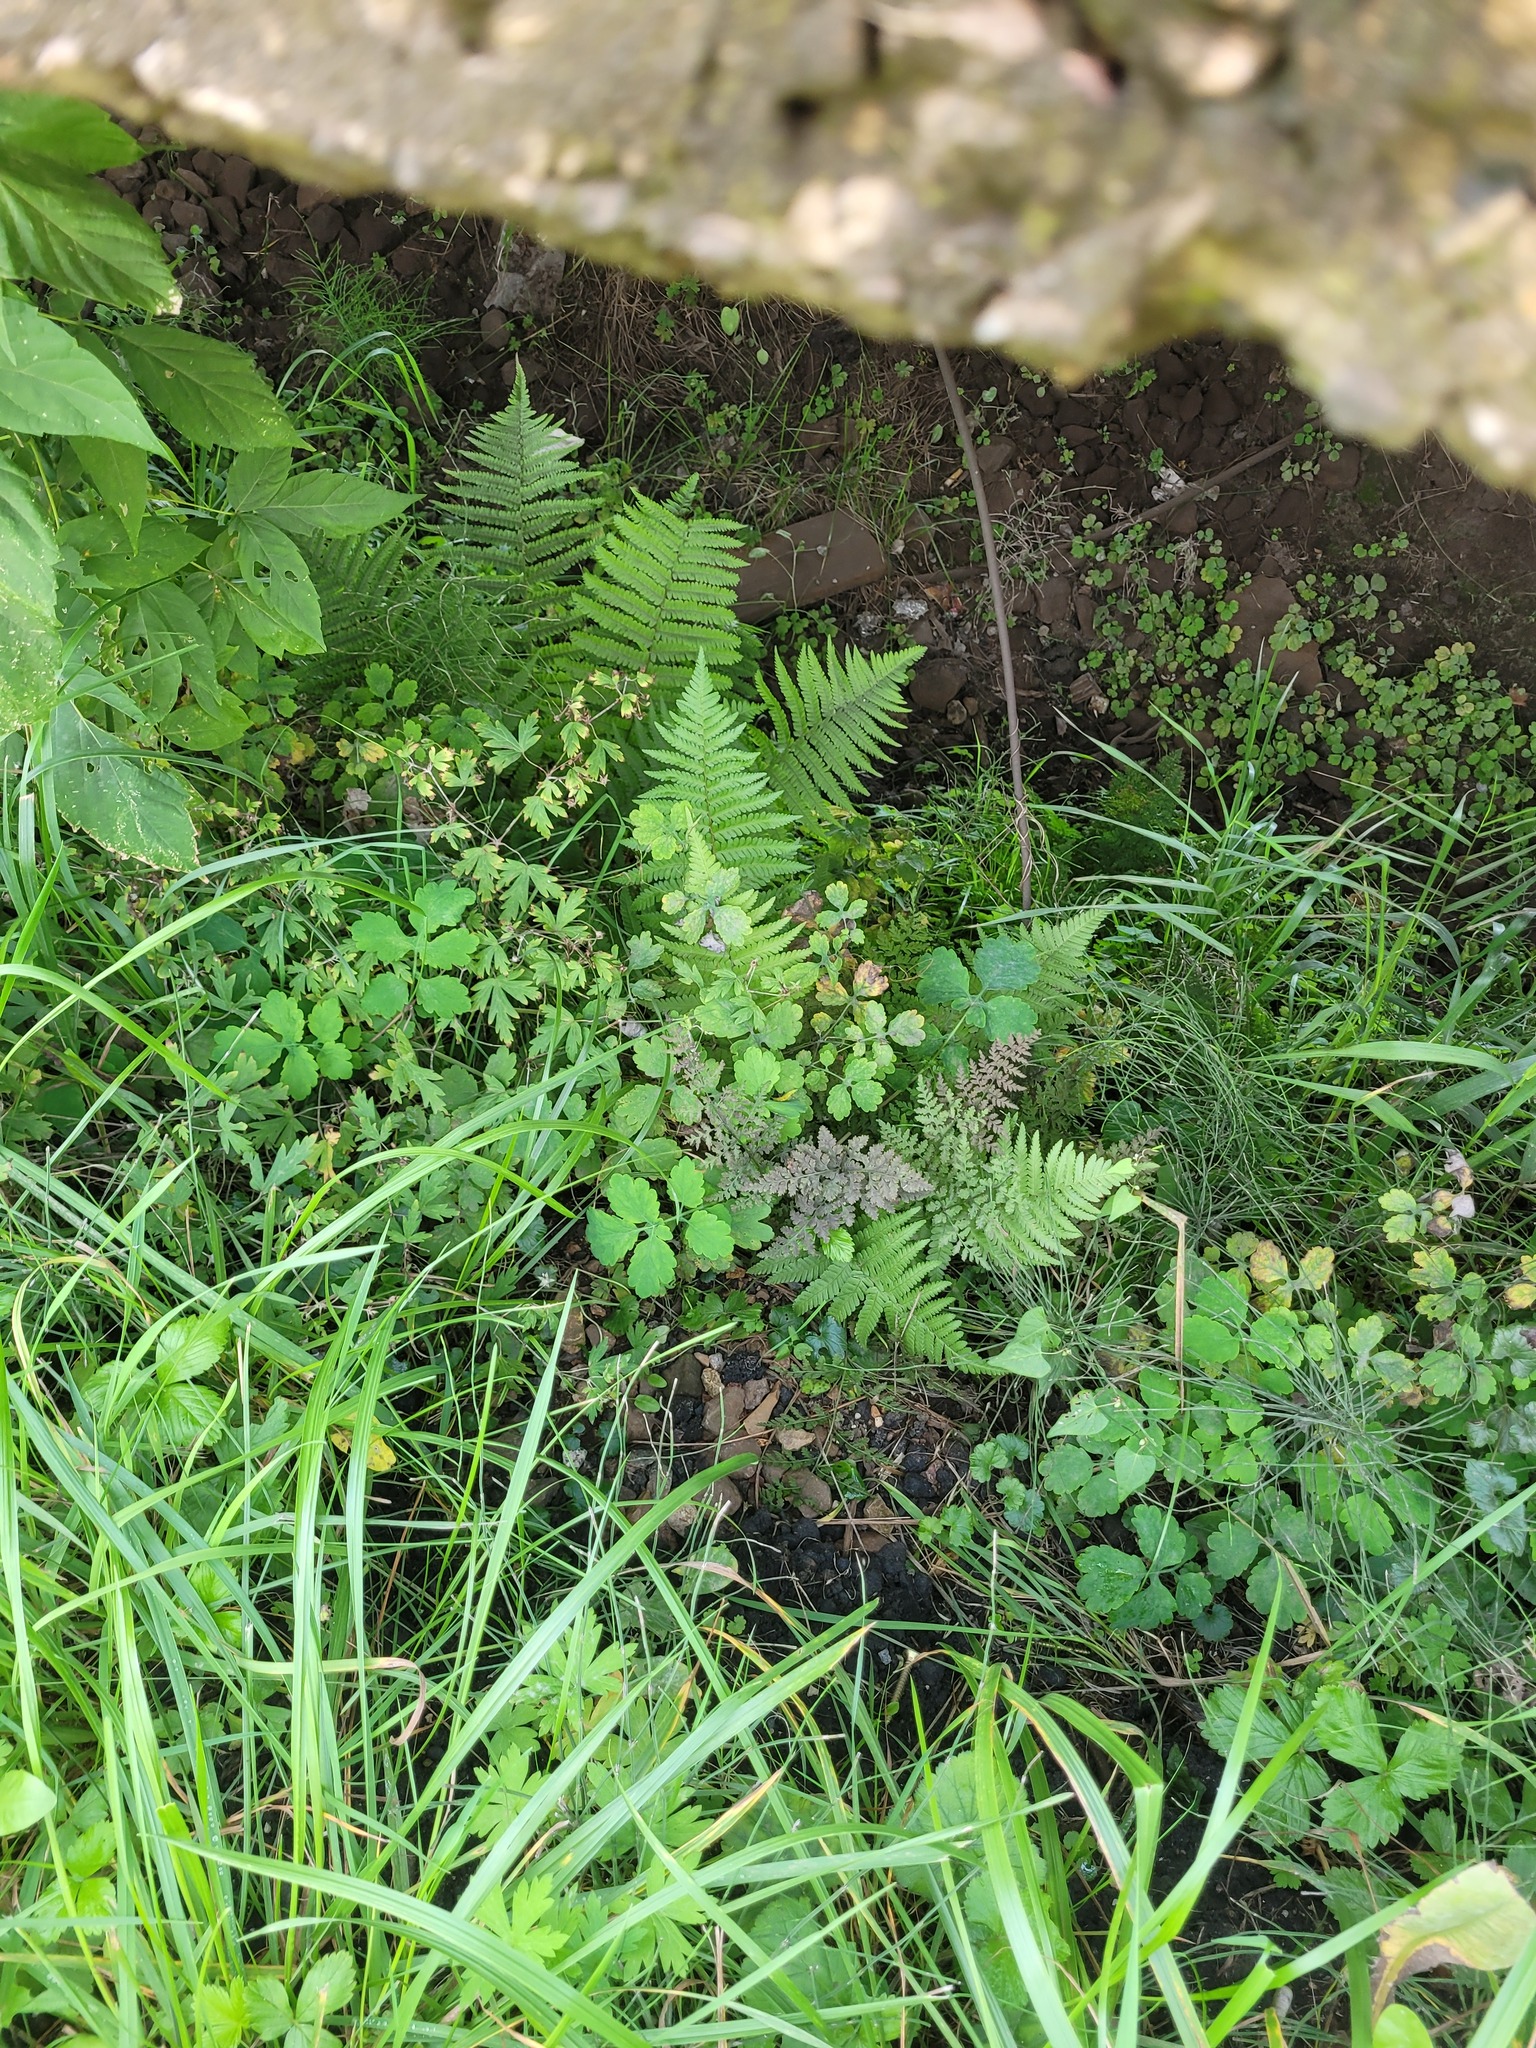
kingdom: Plantae
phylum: Tracheophyta
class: Polypodiopsida
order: Polypodiales
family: Dryopteridaceae
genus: Dryopteris
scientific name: Dryopteris filix-mas
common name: Male fern
